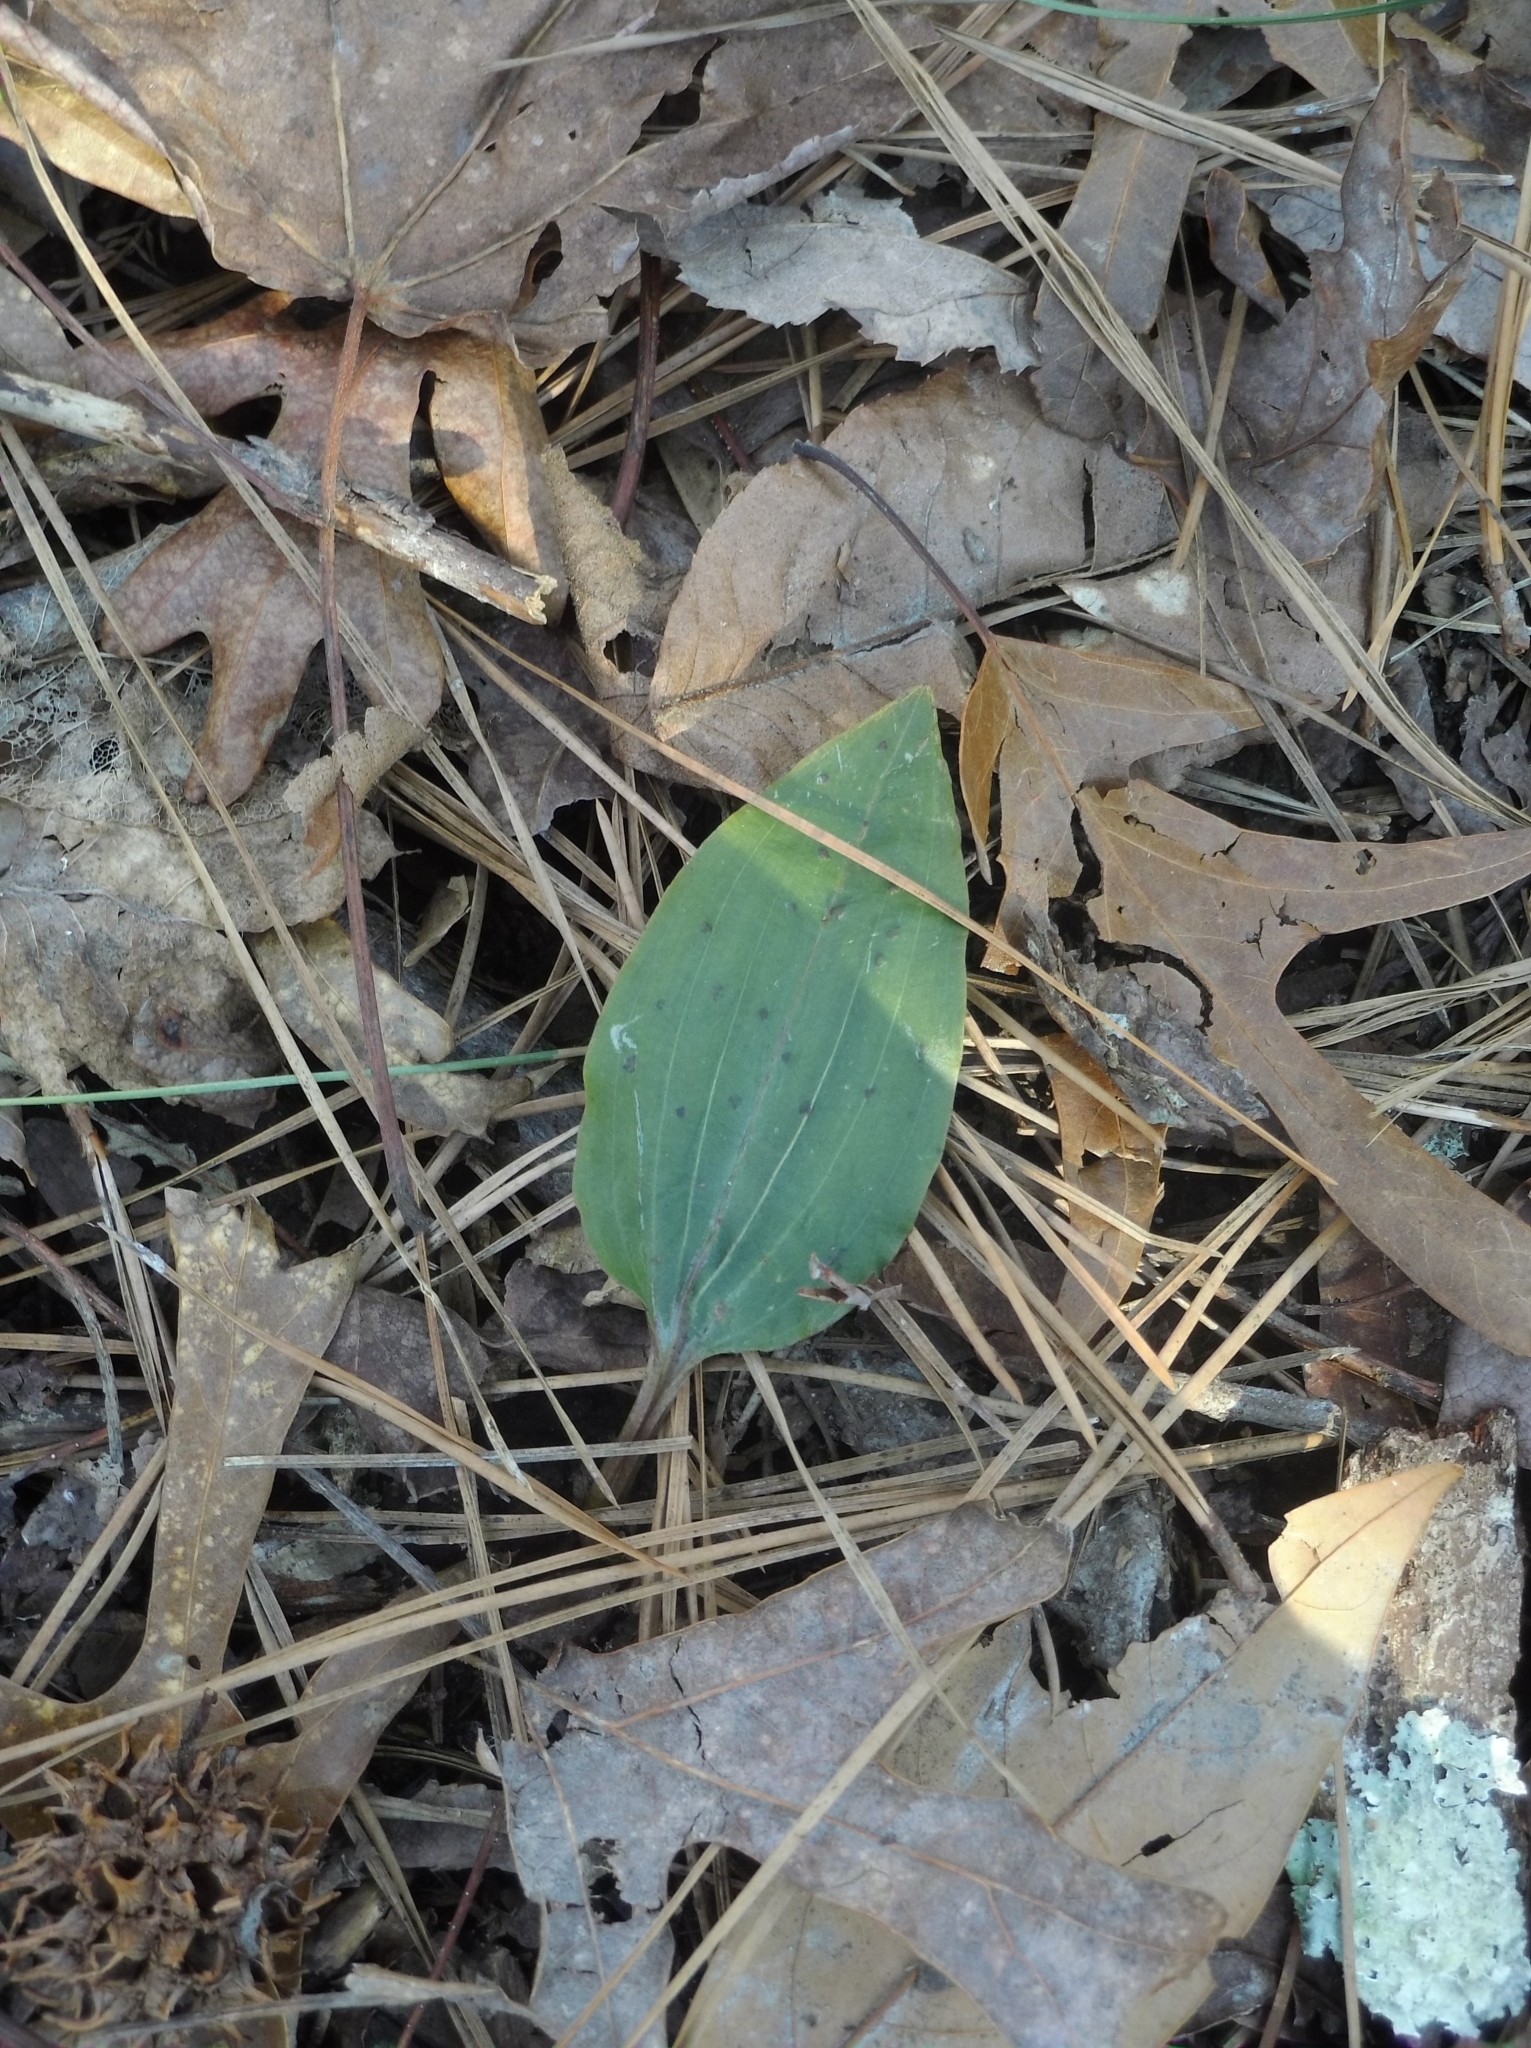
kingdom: Plantae
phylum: Tracheophyta
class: Liliopsida
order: Asparagales
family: Orchidaceae
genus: Tipularia
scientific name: Tipularia discolor
